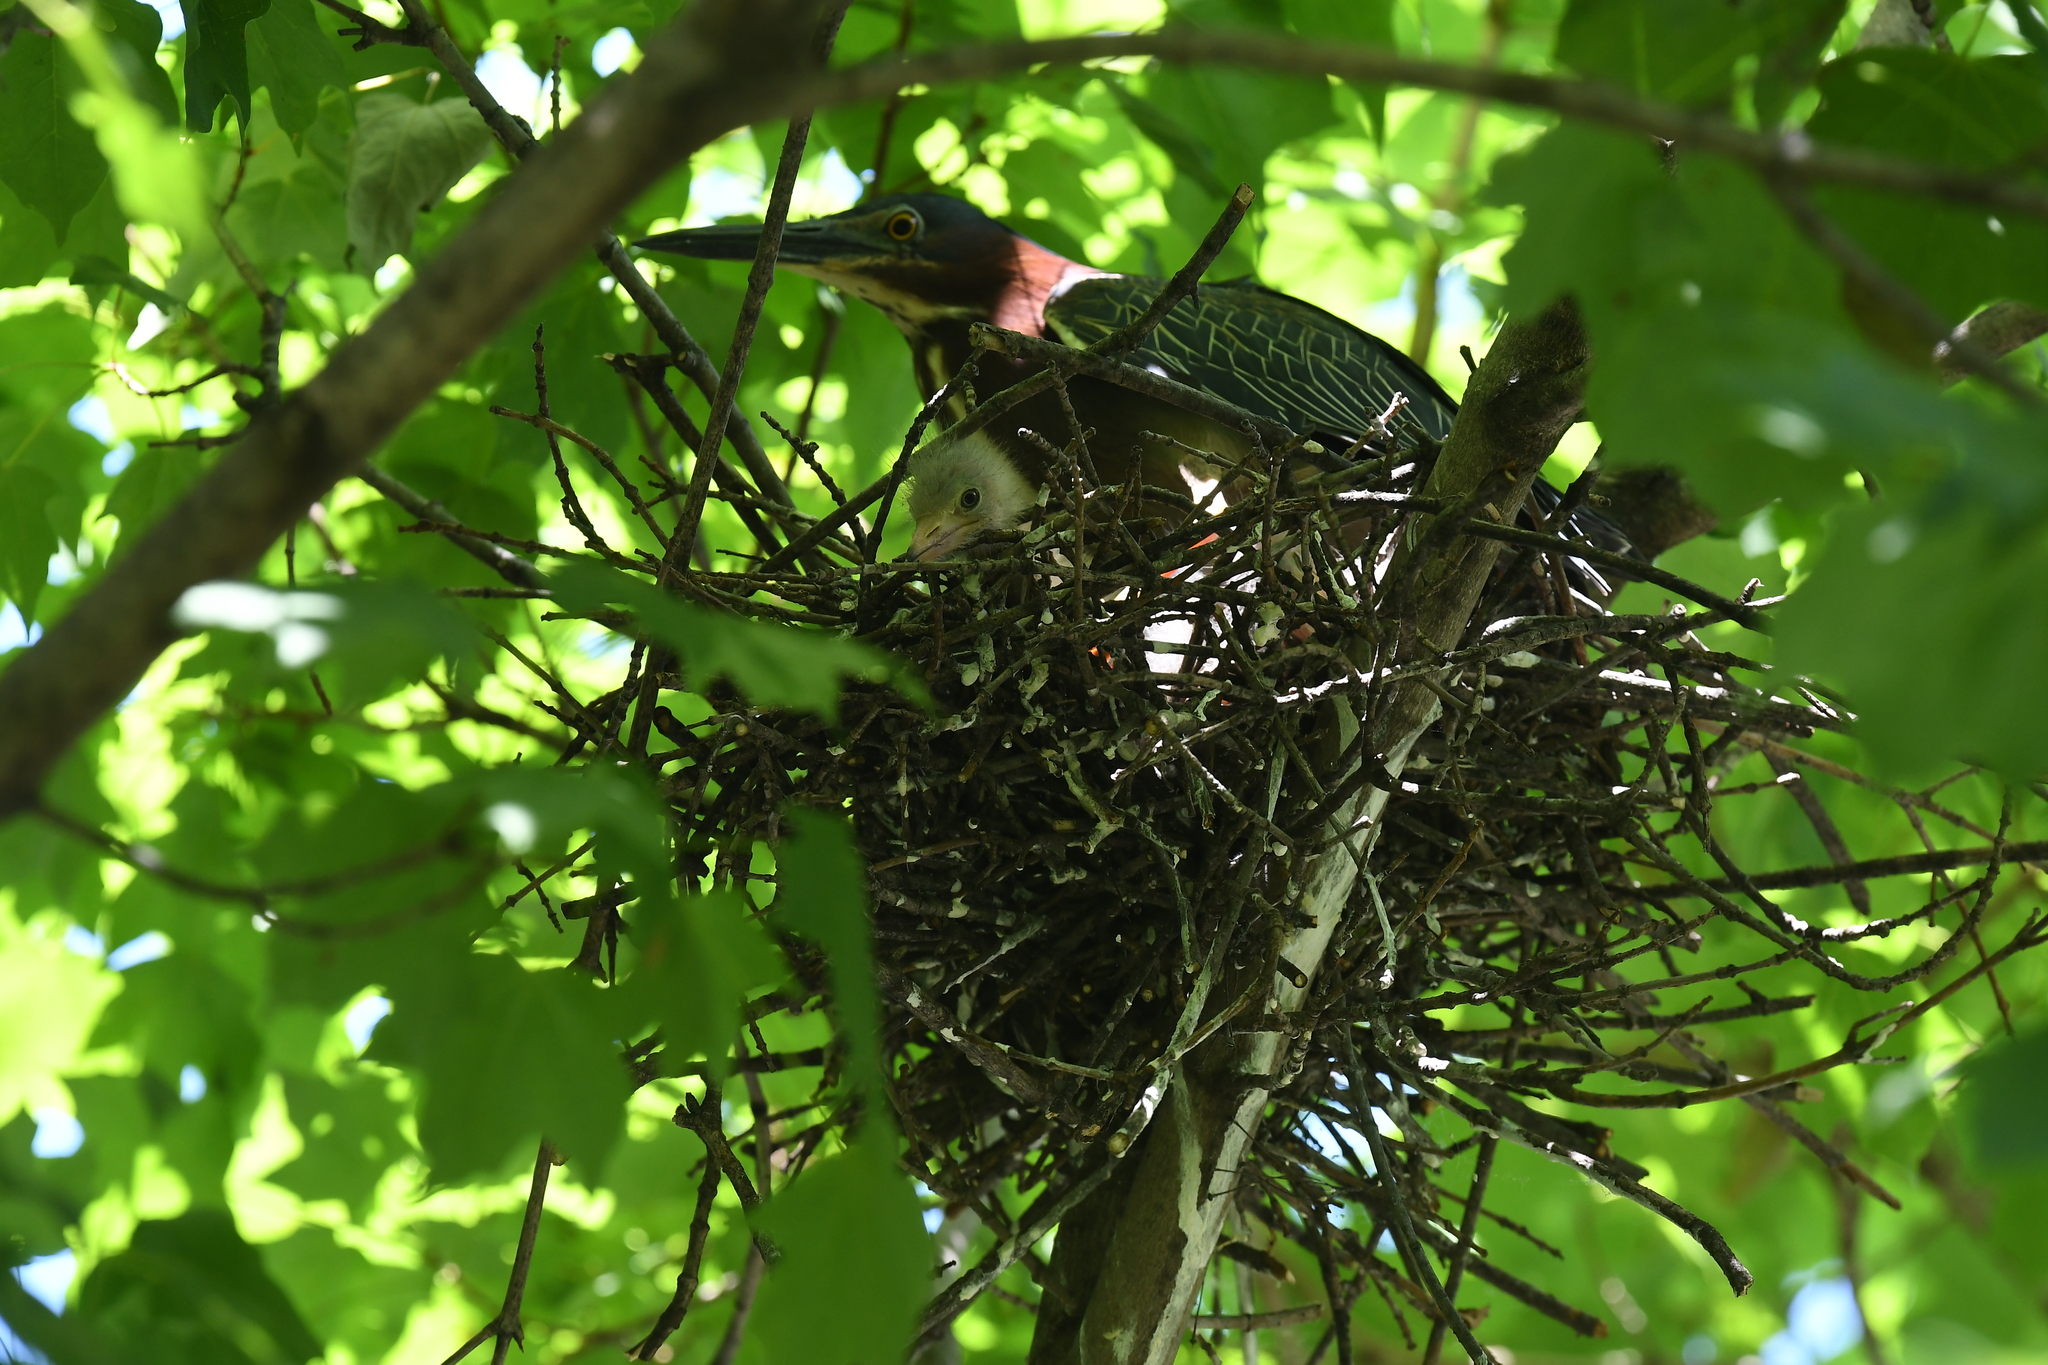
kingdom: Animalia
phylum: Chordata
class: Aves
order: Pelecaniformes
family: Ardeidae
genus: Butorides
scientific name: Butorides virescens
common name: Green heron
